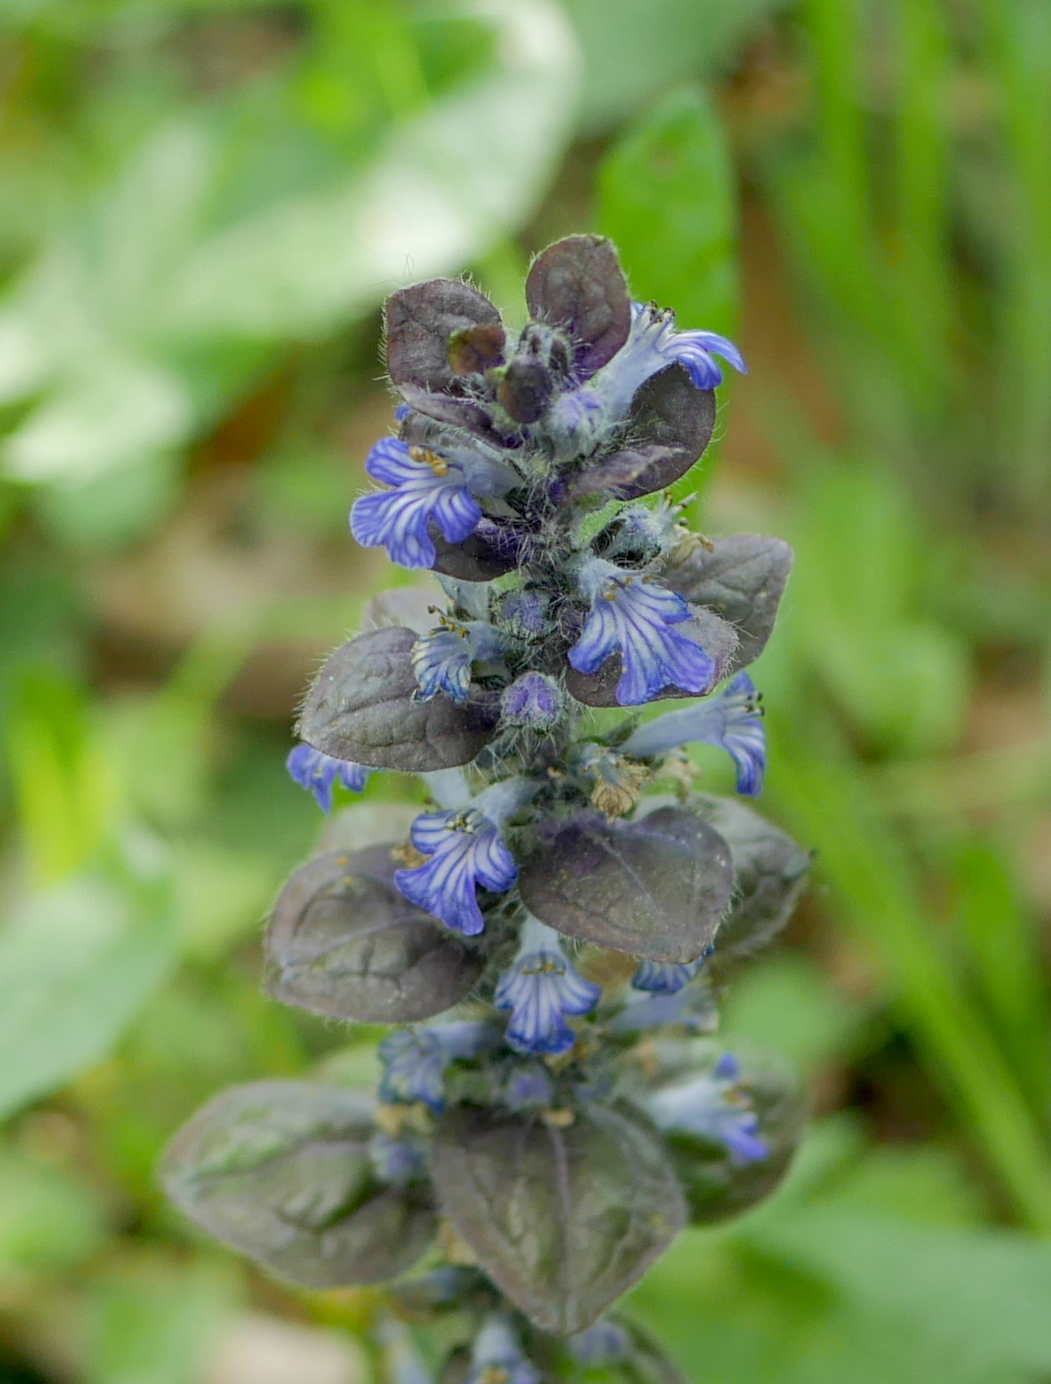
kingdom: Plantae
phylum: Tracheophyta
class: Magnoliopsida
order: Lamiales
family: Lamiaceae
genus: Ajuga
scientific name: Ajuga reptans
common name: Bugle
